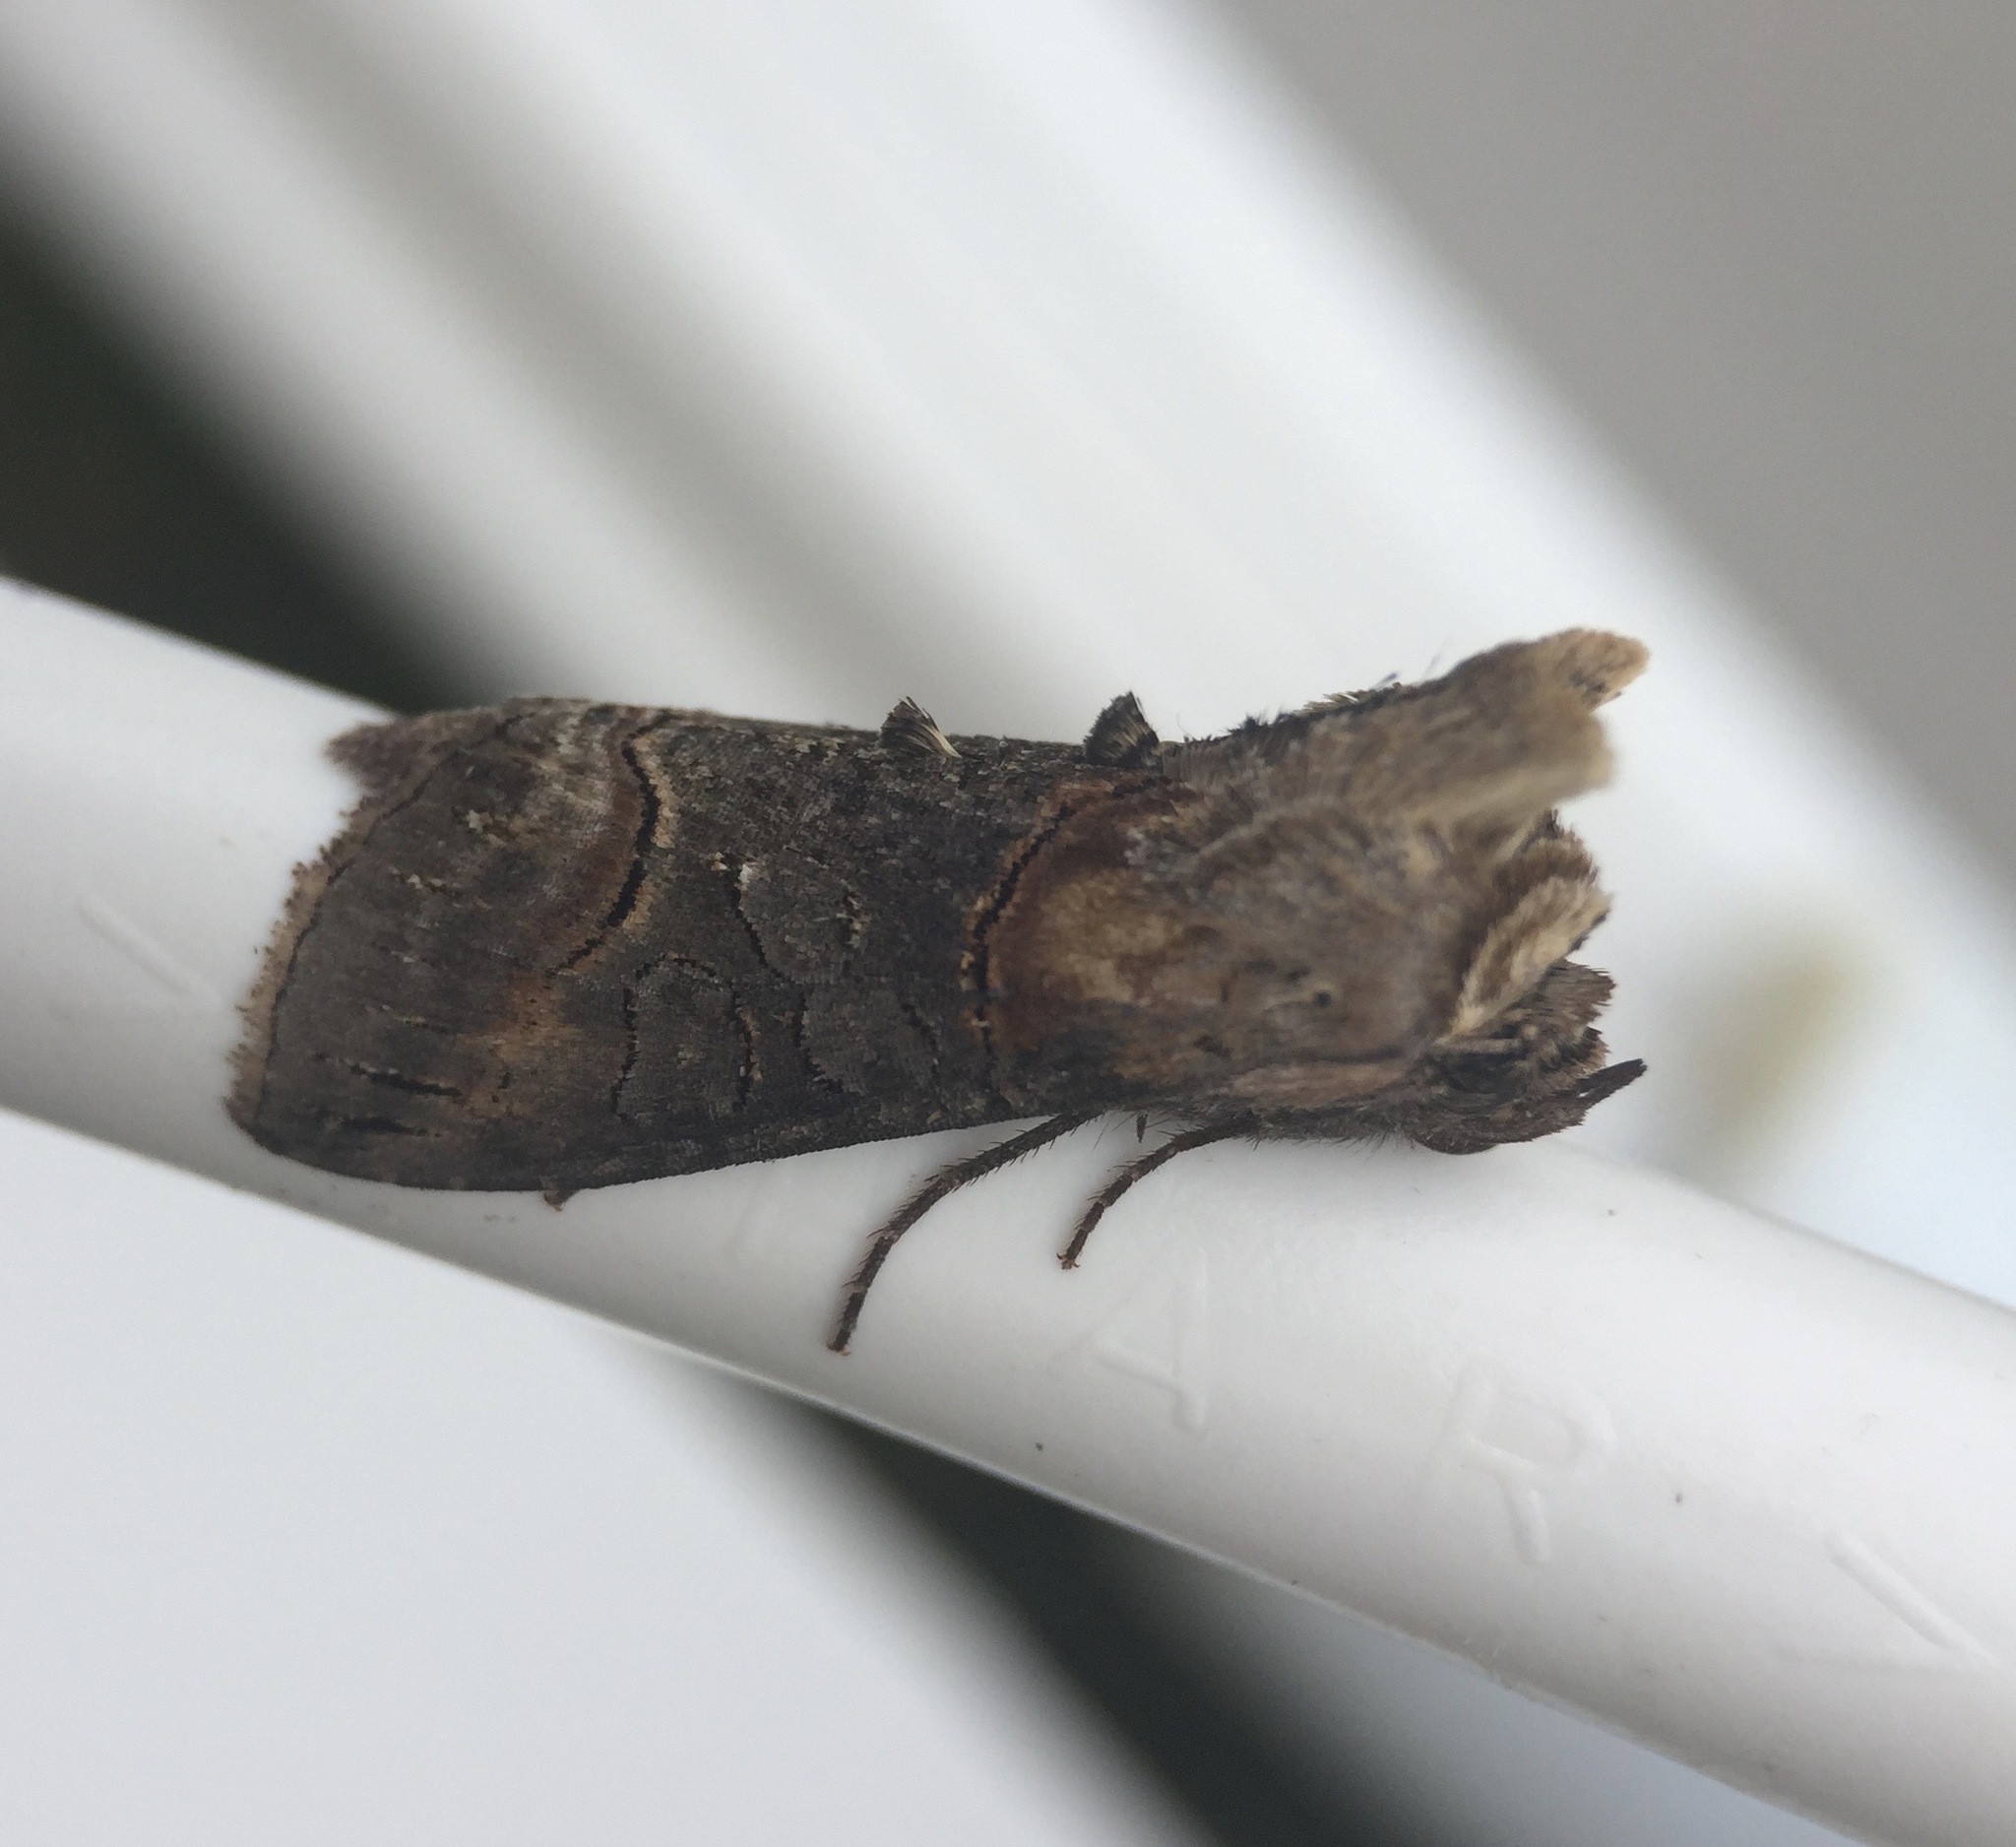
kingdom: Animalia
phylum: Arthropoda
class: Insecta
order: Lepidoptera
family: Noctuidae
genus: Abrostola
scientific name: Abrostola triplasia
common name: Dark spectacle
